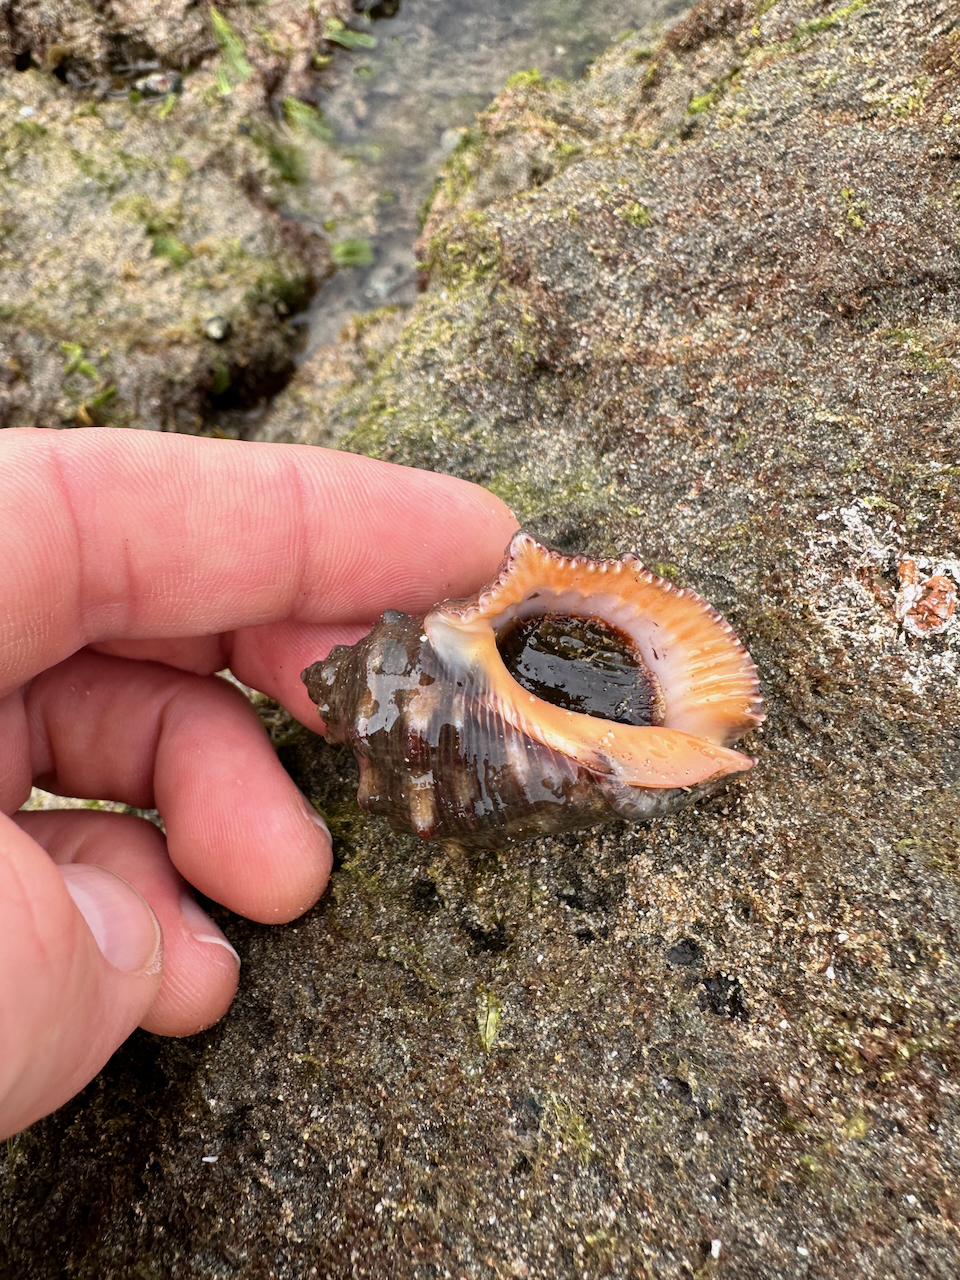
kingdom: Animalia
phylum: Mollusca
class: Gastropoda
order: Neogastropoda
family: Muricidae
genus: Stramonita
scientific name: Stramonita biserialis
